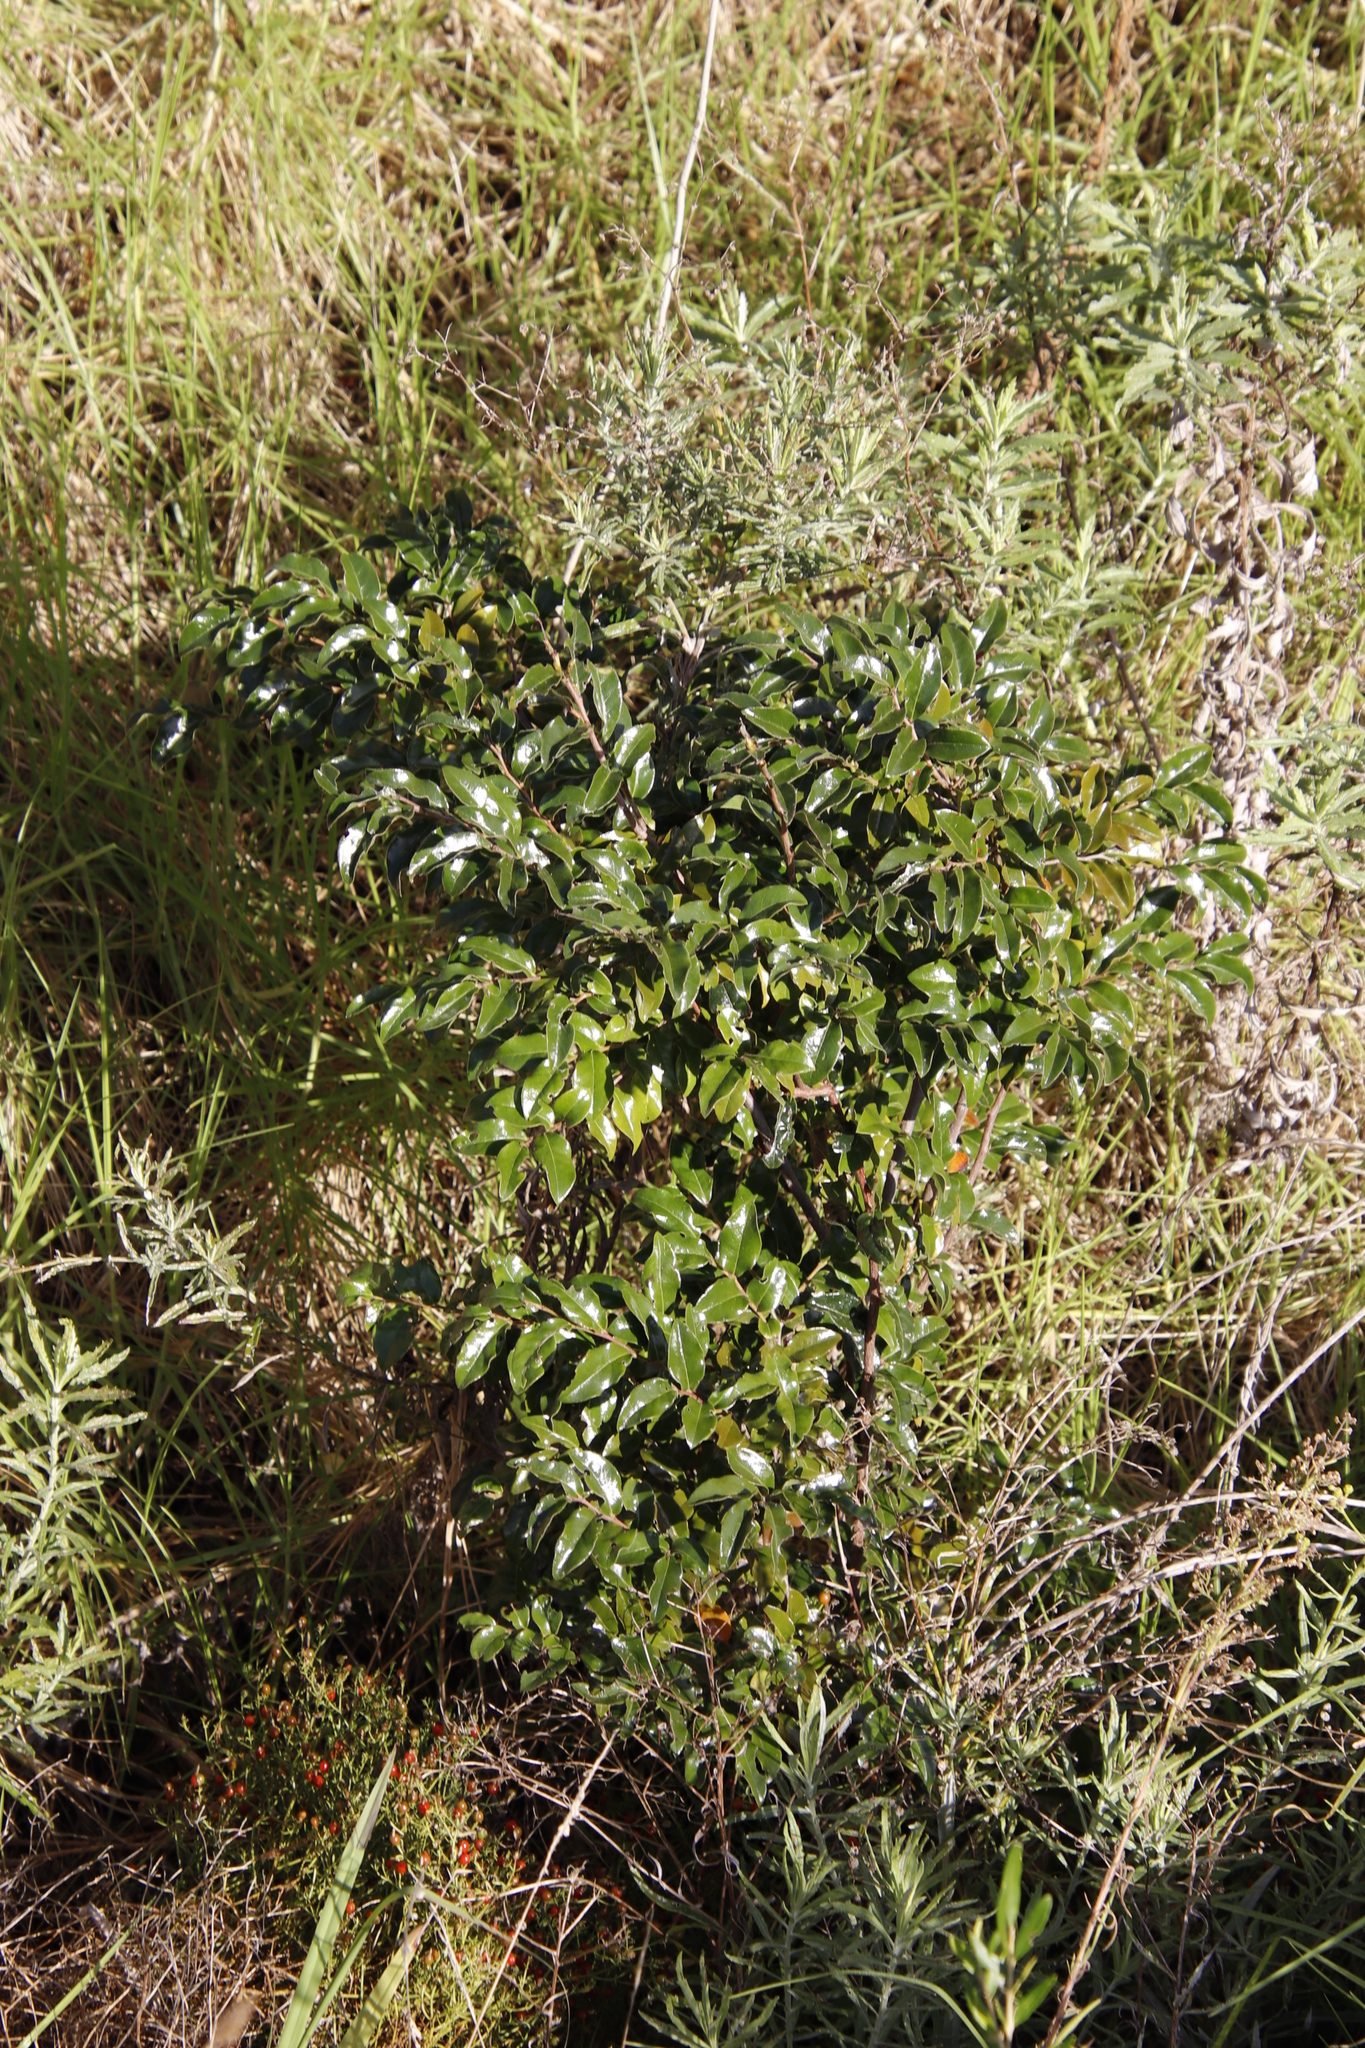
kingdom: Plantae
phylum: Tracheophyta
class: Magnoliopsida
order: Ericales
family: Ebenaceae
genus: Diospyros
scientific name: Diospyros whyteana
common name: Bladder-nut
